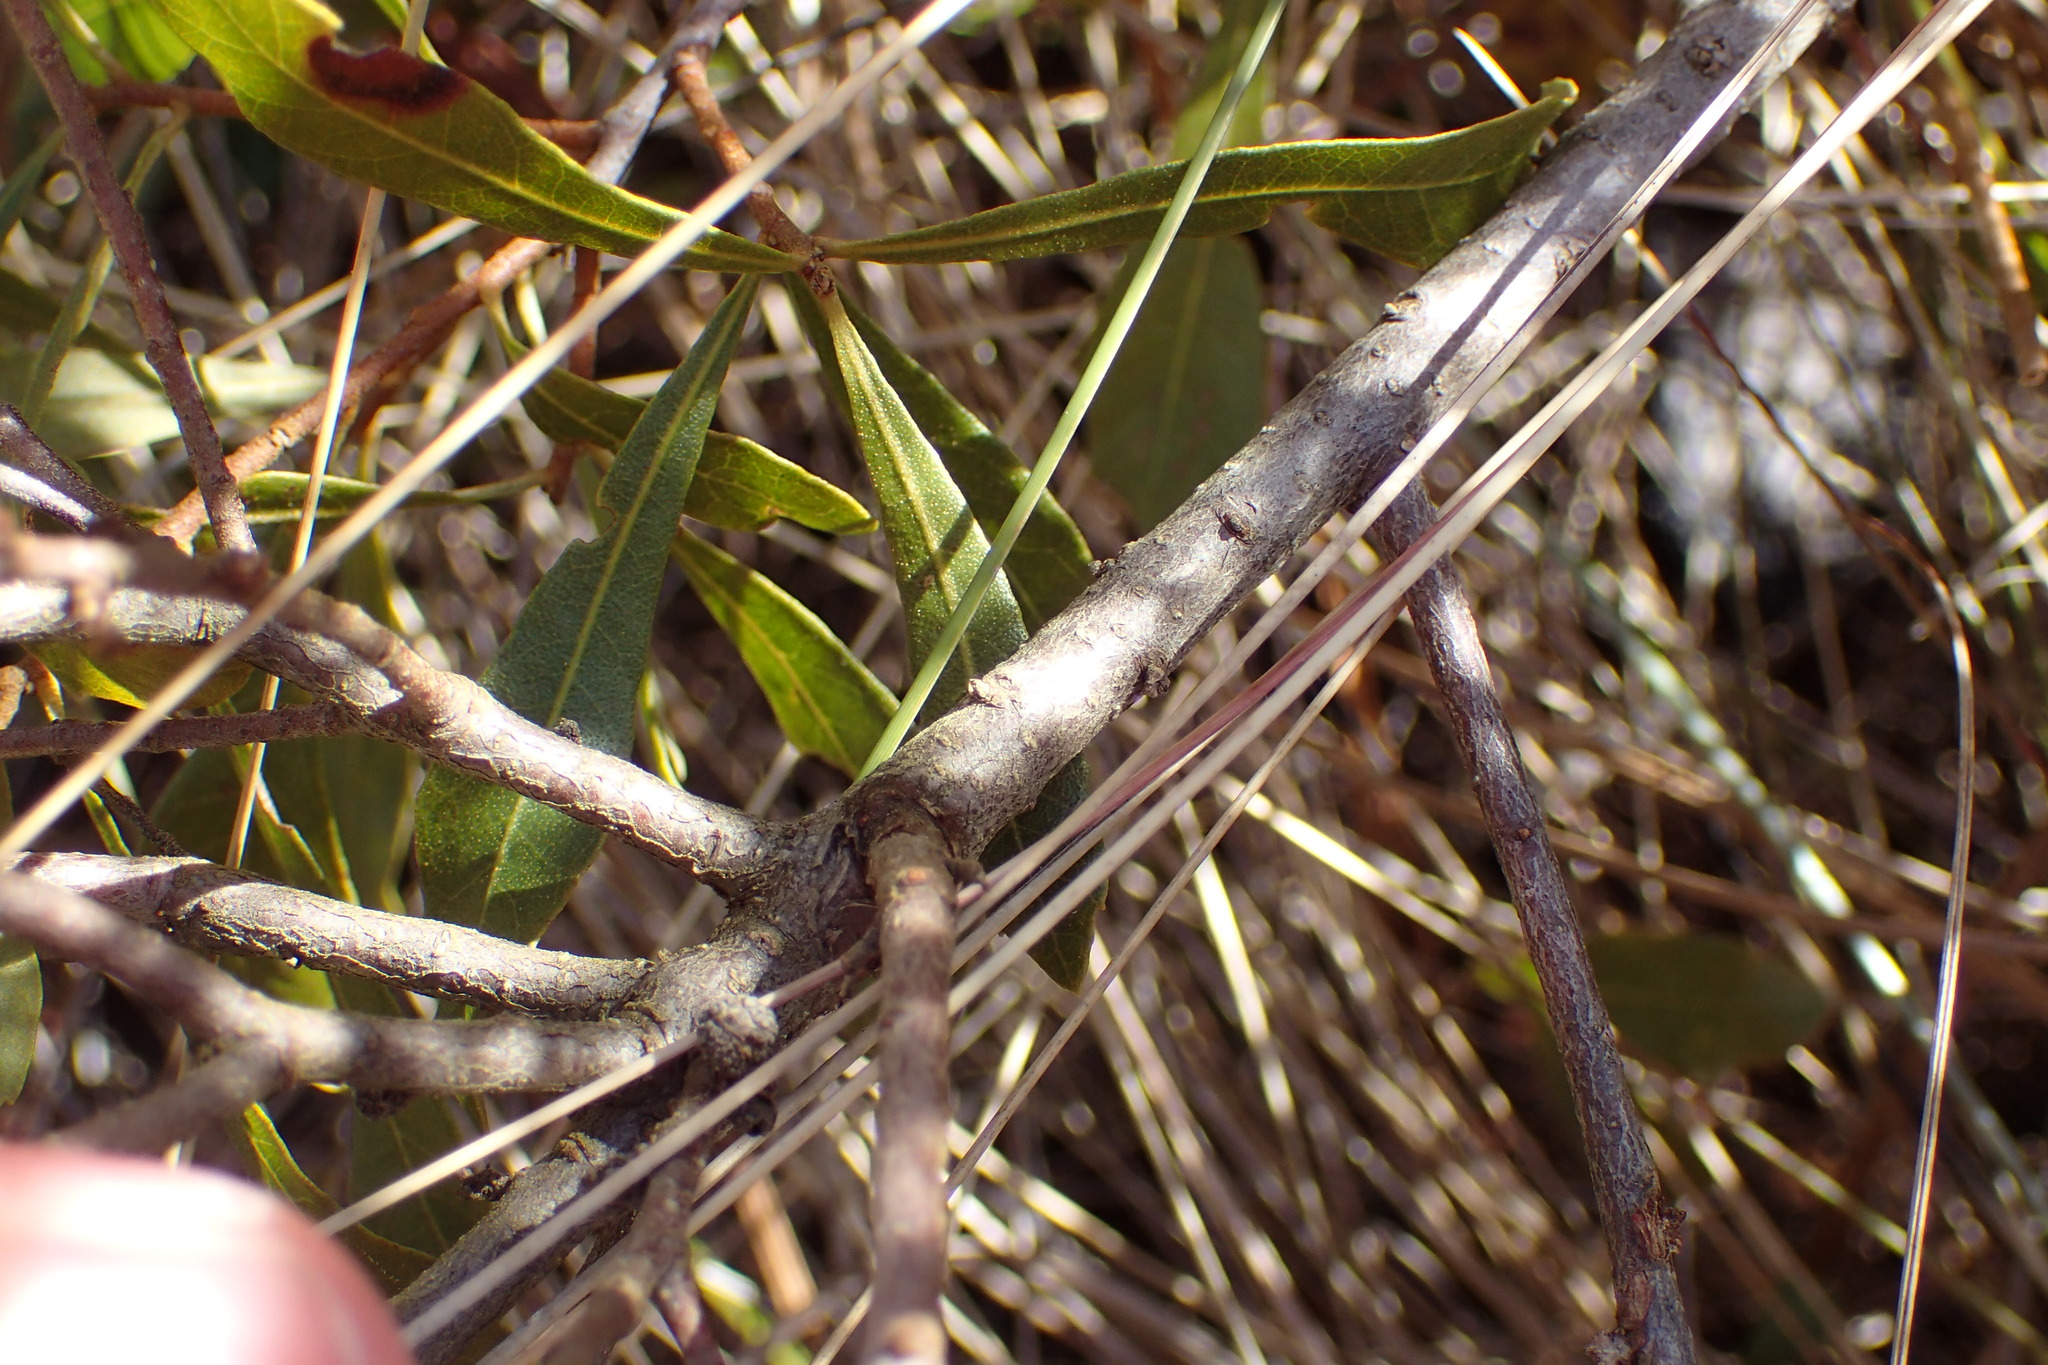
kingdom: Plantae
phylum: Tracheophyta
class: Magnoliopsida
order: Fagales
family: Myricaceae
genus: Morella
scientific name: Morella cerifera
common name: Wax myrtle
